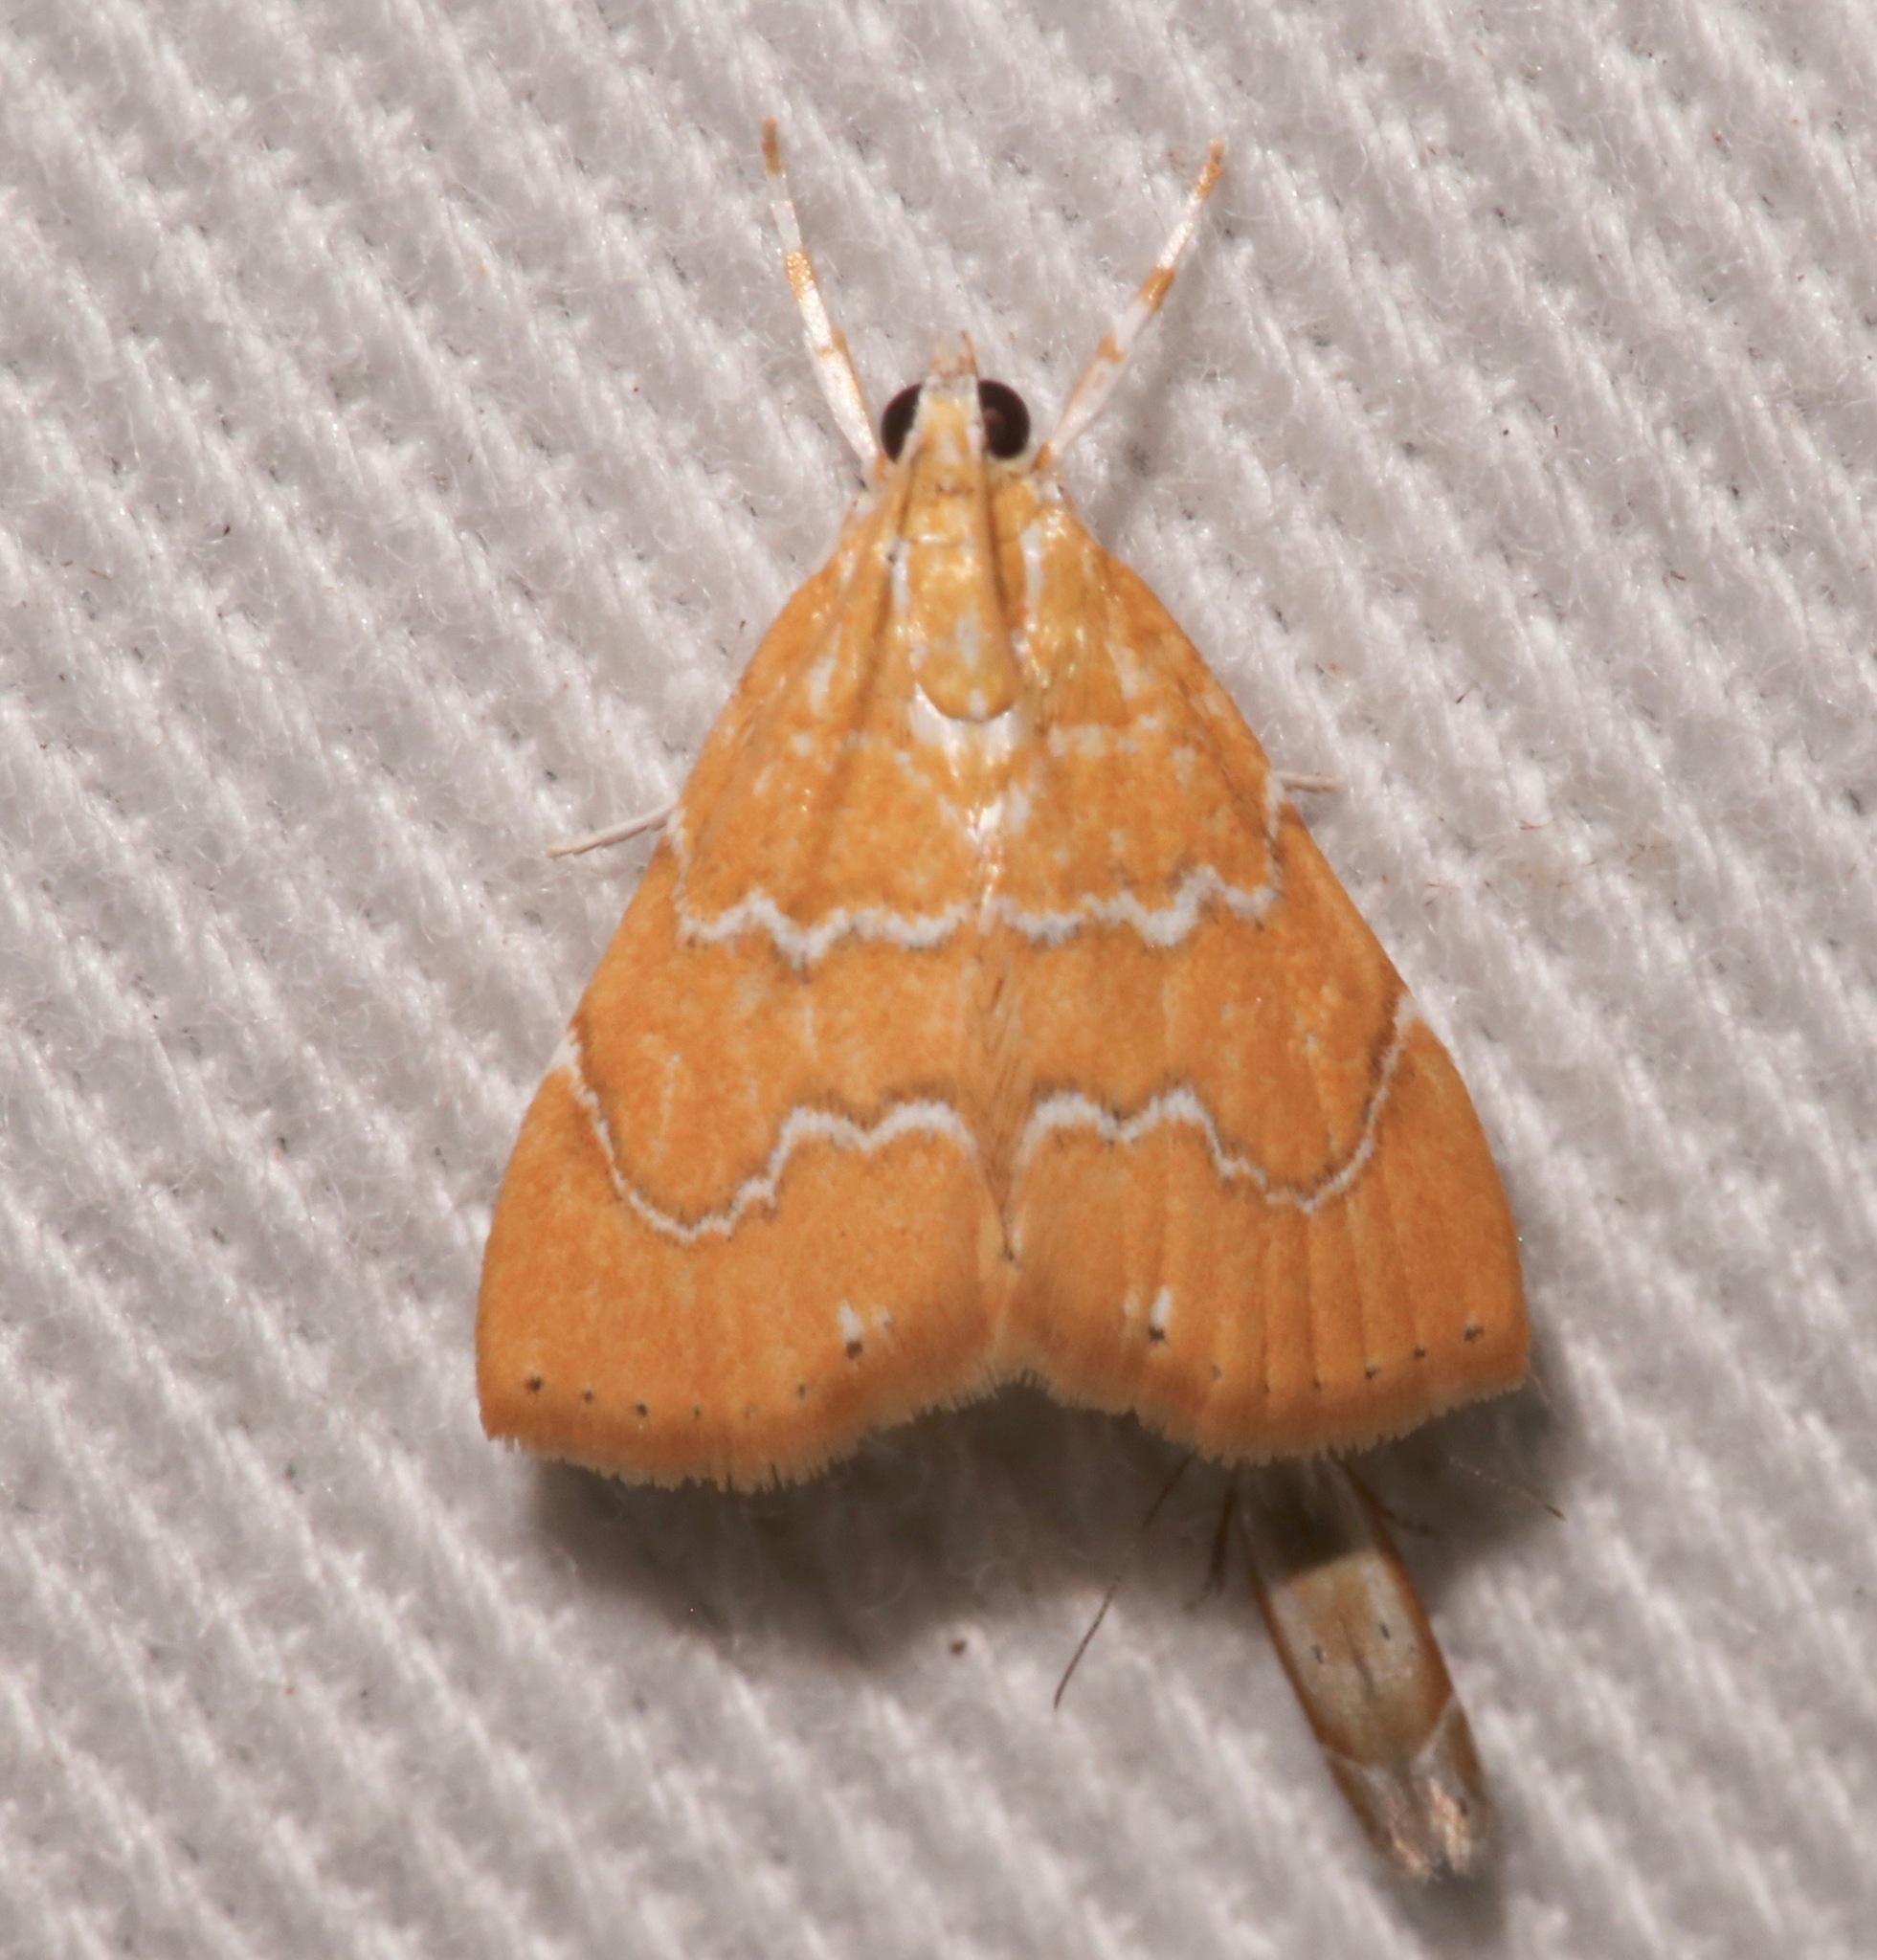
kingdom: Animalia
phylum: Arthropoda
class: Insecta
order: Lepidoptera
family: Crambidae
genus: Glaphyria
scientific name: Glaphyria sesquistrialis
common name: White-roped glaphyria
